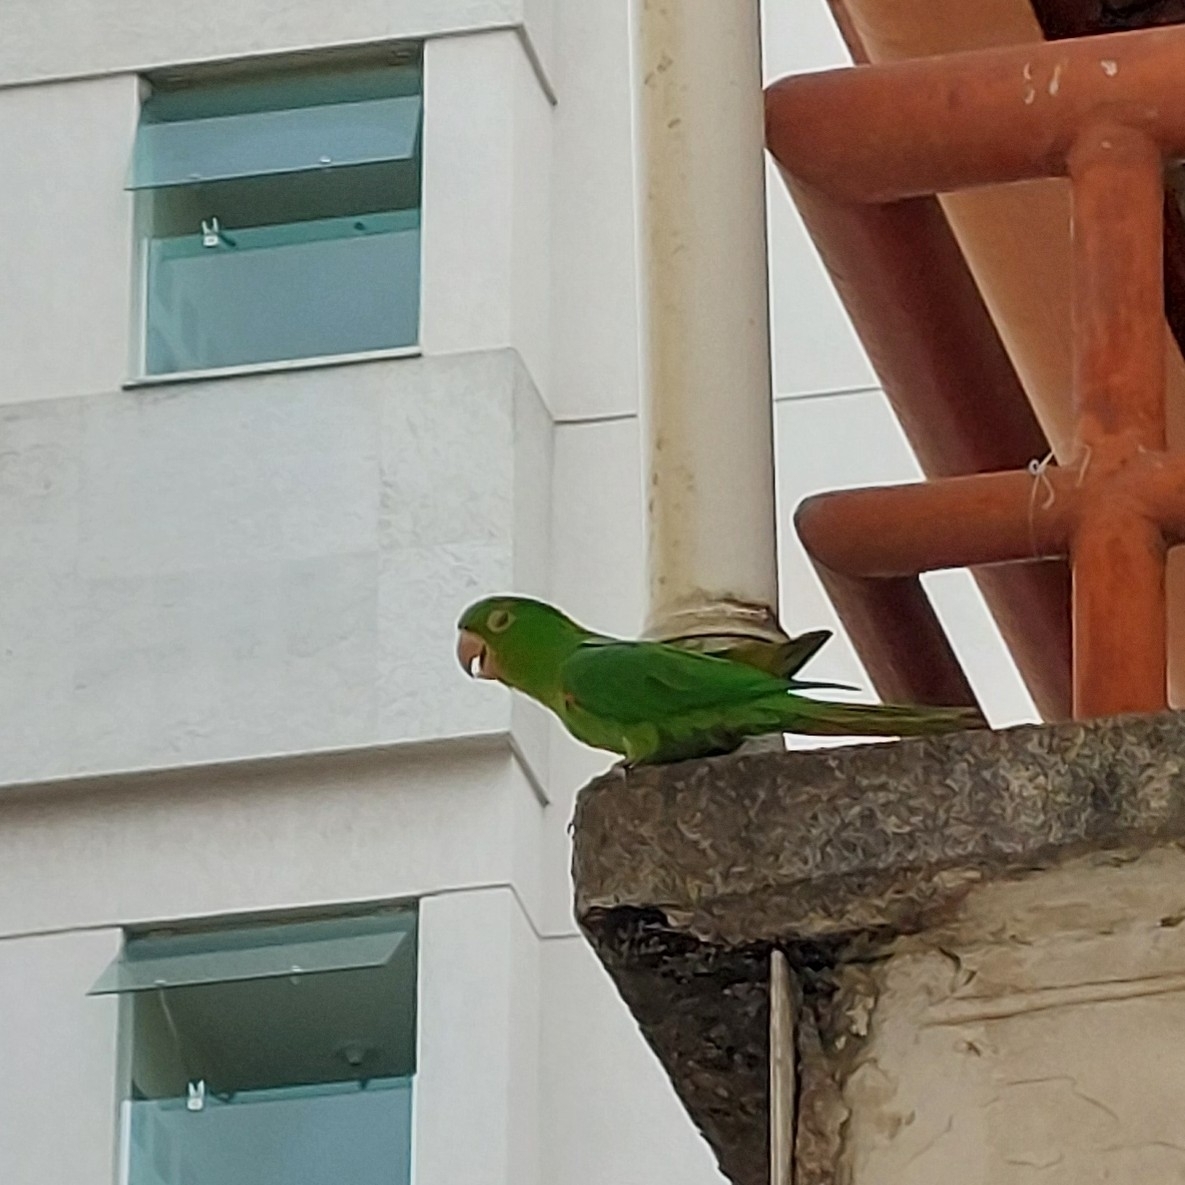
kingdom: Animalia
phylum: Chordata
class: Aves
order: Psittaciformes
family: Psittacidae
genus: Aratinga
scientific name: Aratinga leucophthalma
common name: White-eyed parakeet
